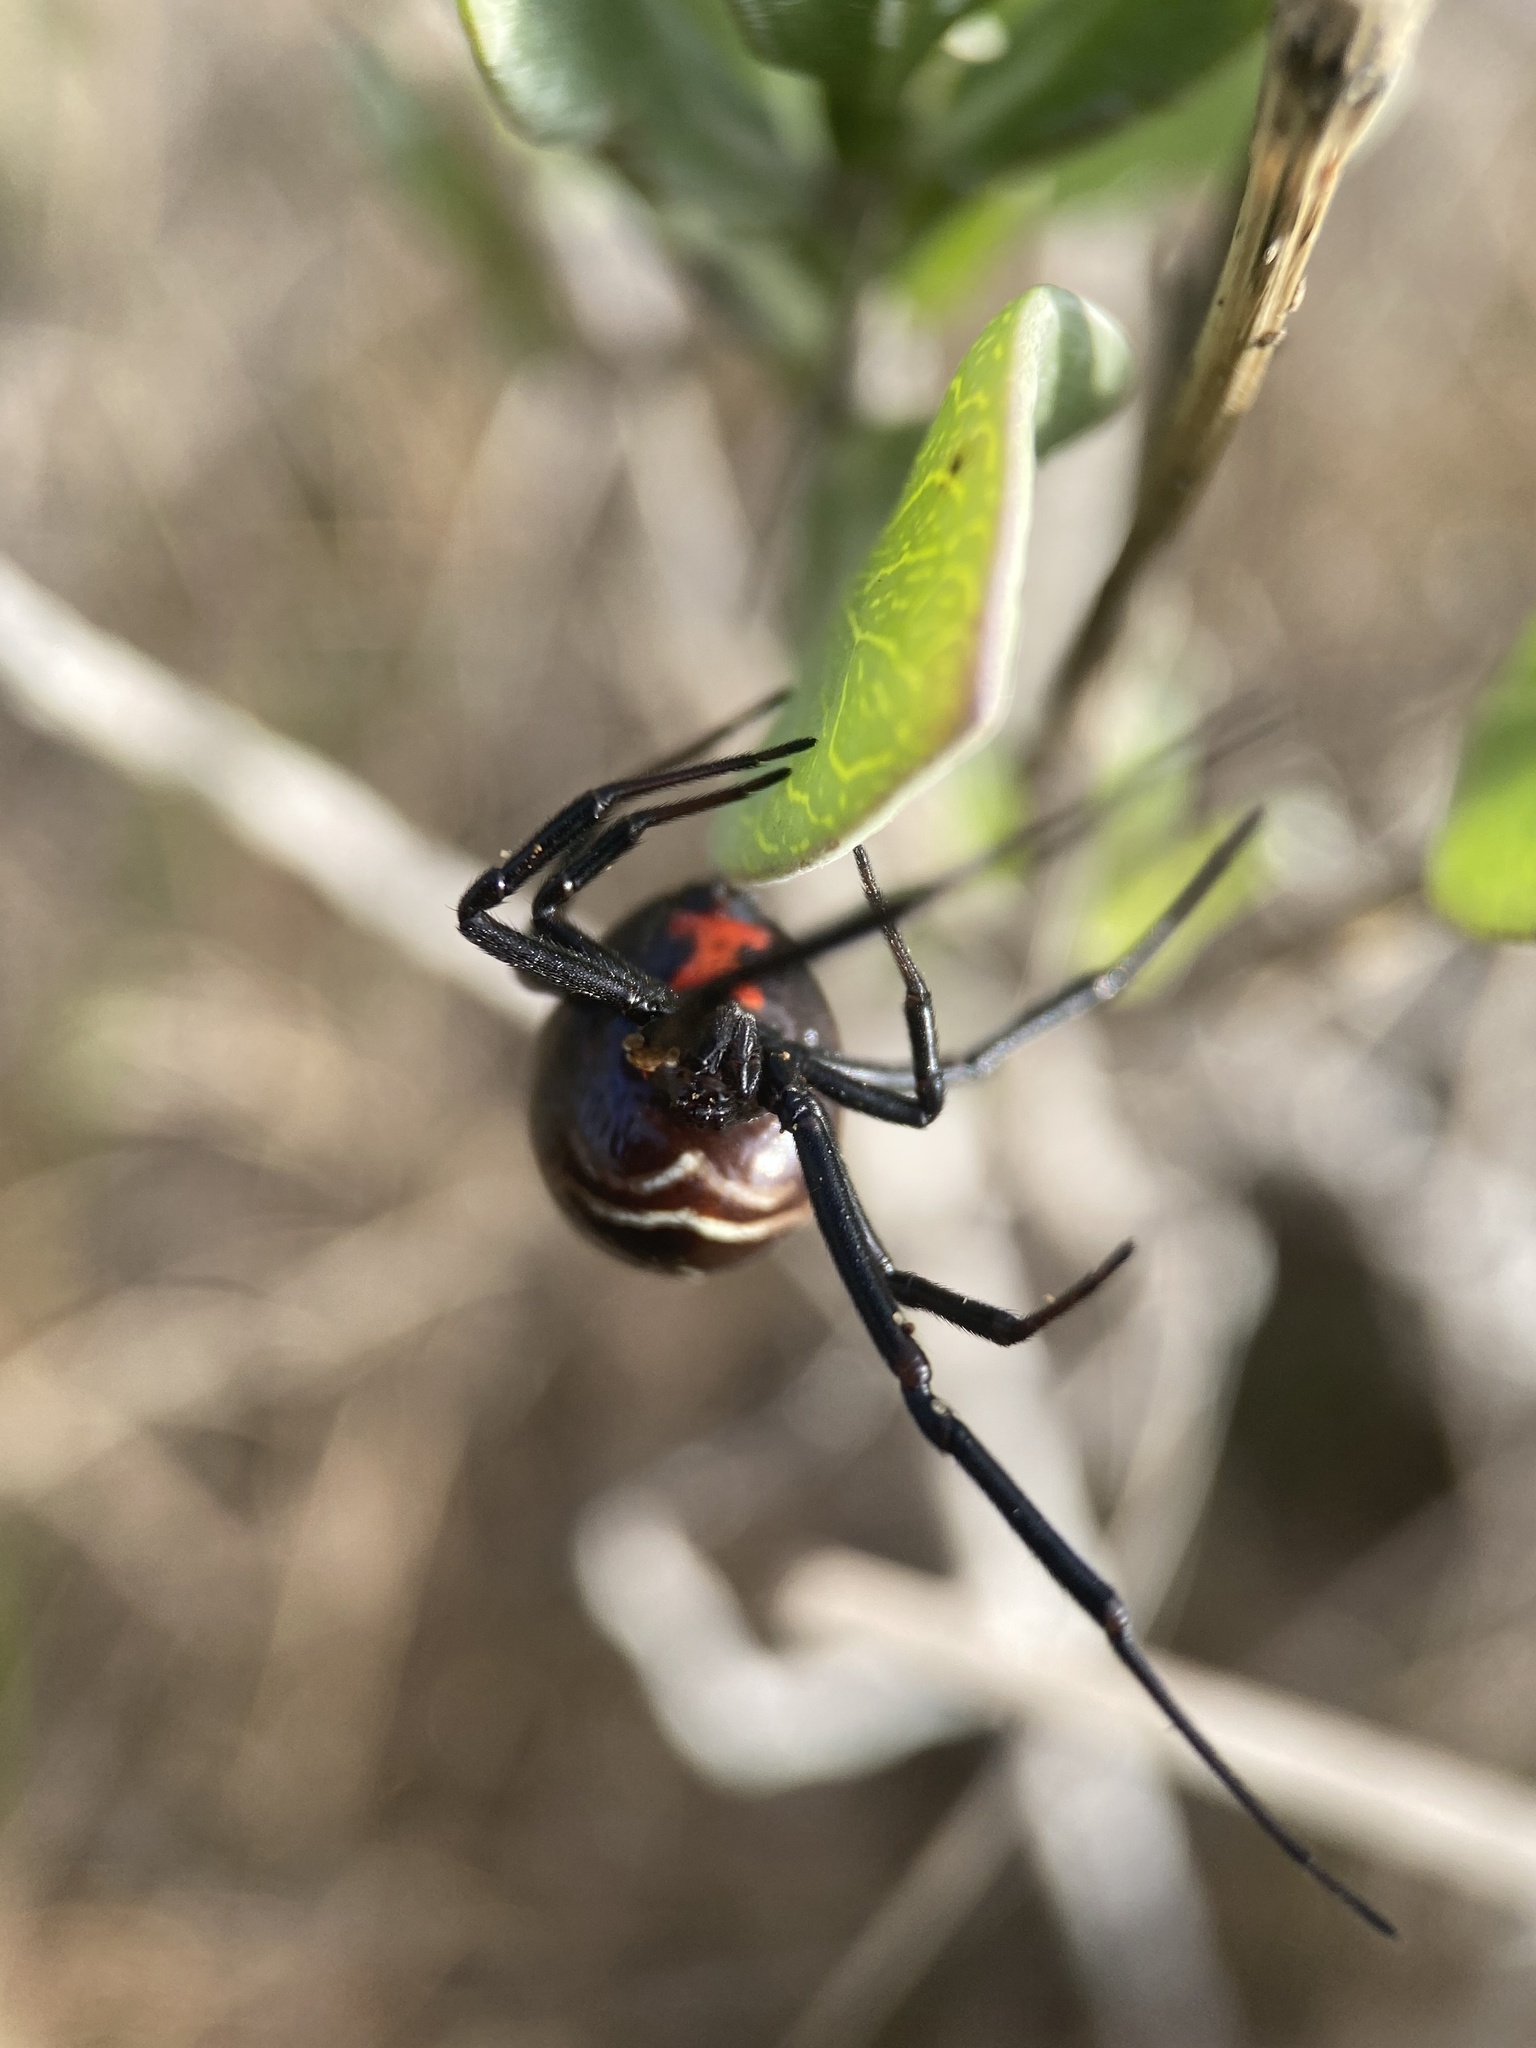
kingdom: Animalia
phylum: Arthropoda
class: Arachnida
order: Araneae
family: Theridiidae
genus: Latrodectus
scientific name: Latrodectus mactans
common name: Cobweb spiders
